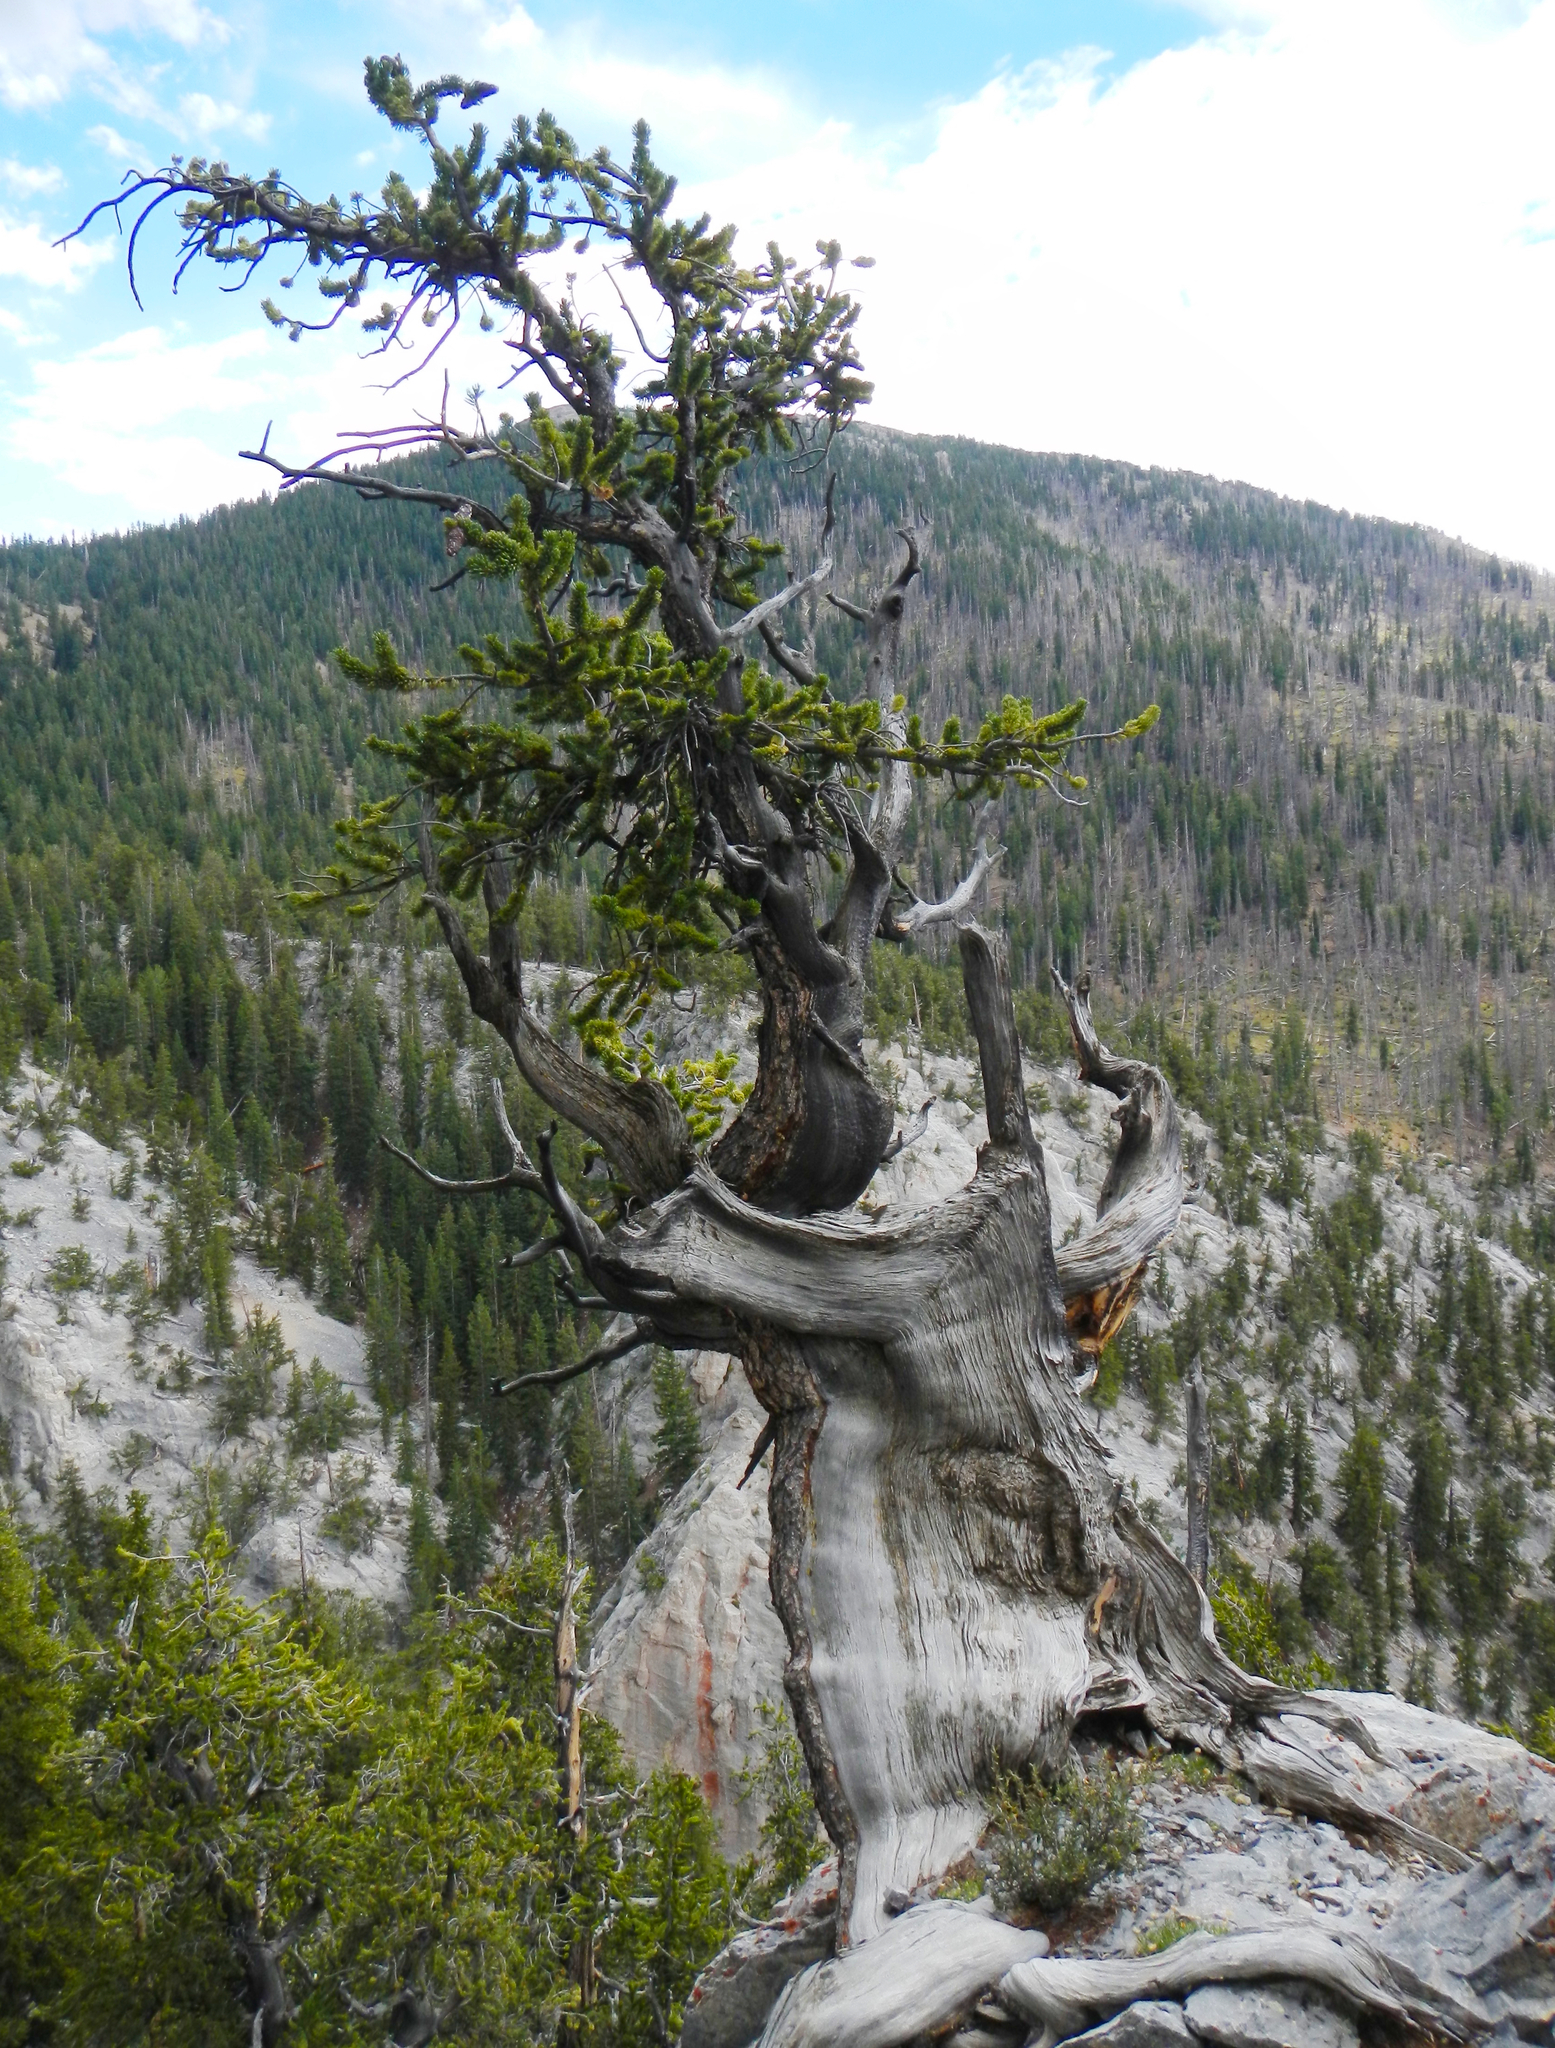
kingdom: Plantae
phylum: Tracheophyta
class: Pinopsida
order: Pinales
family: Pinaceae
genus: Pinus
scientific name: Pinus longaeva
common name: Intermountain bristlecone pine
